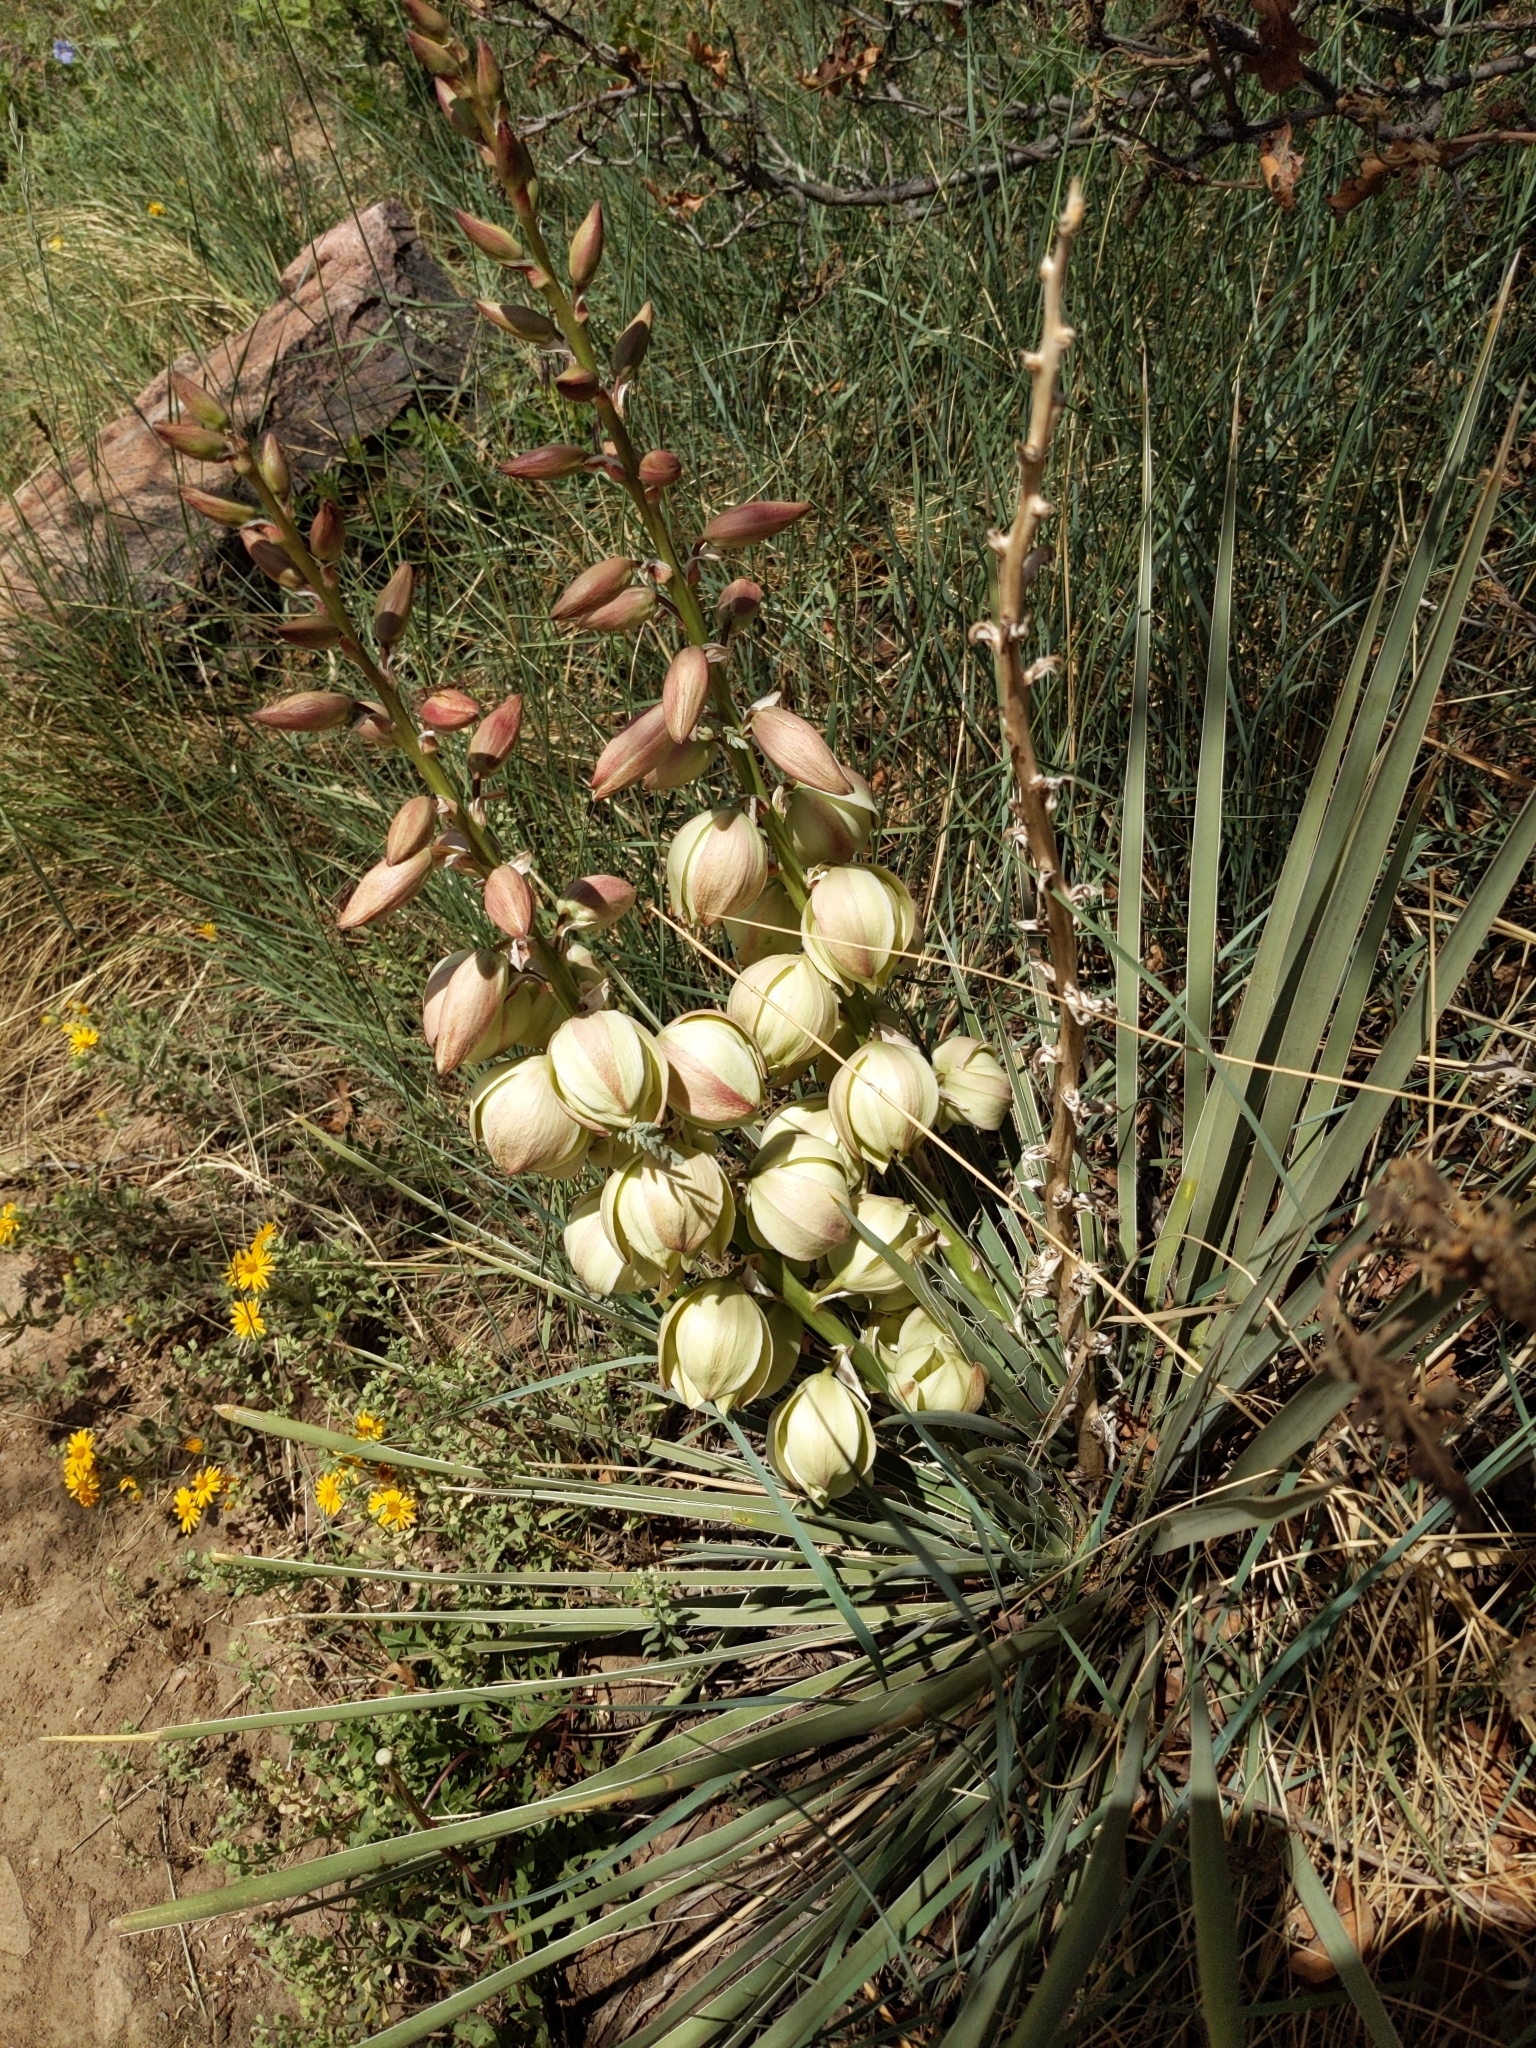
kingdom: Plantae
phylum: Tracheophyta
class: Liliopsida
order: Asparagales
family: Asparagaceae
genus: Yucca
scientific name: Yucca glauca
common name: Great plains yucca
